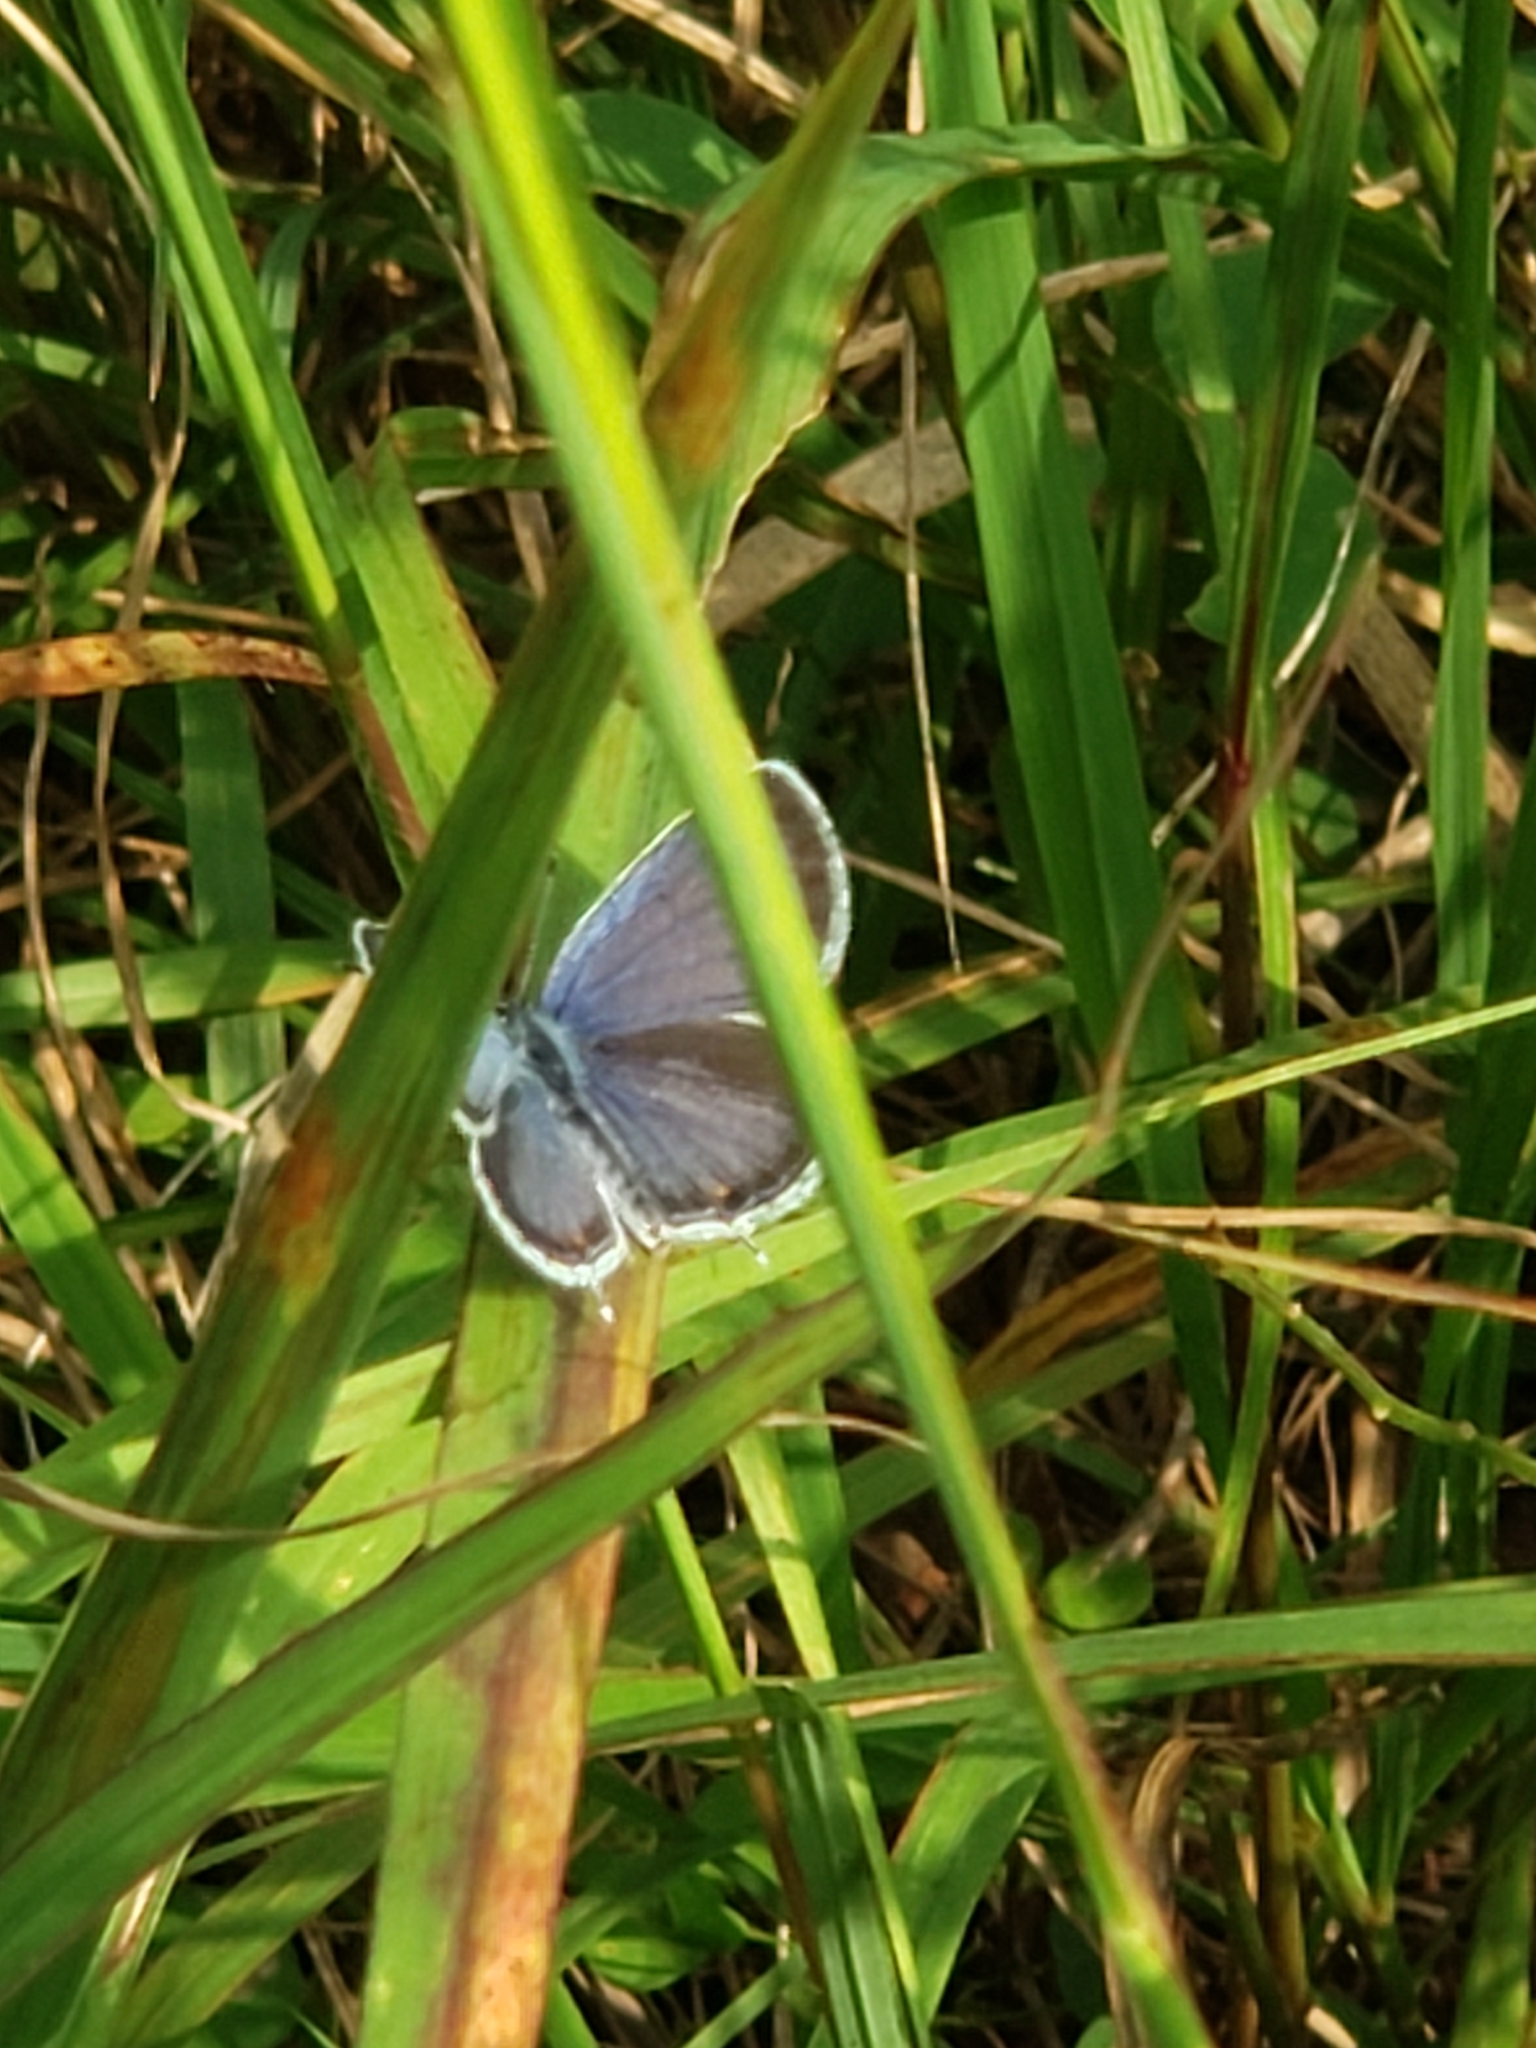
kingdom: Animalia
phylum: Arthropoda
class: Insecta
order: Lepidoptera
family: Lycaenidae
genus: Elkalyce
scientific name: Elkalyce comyntas
